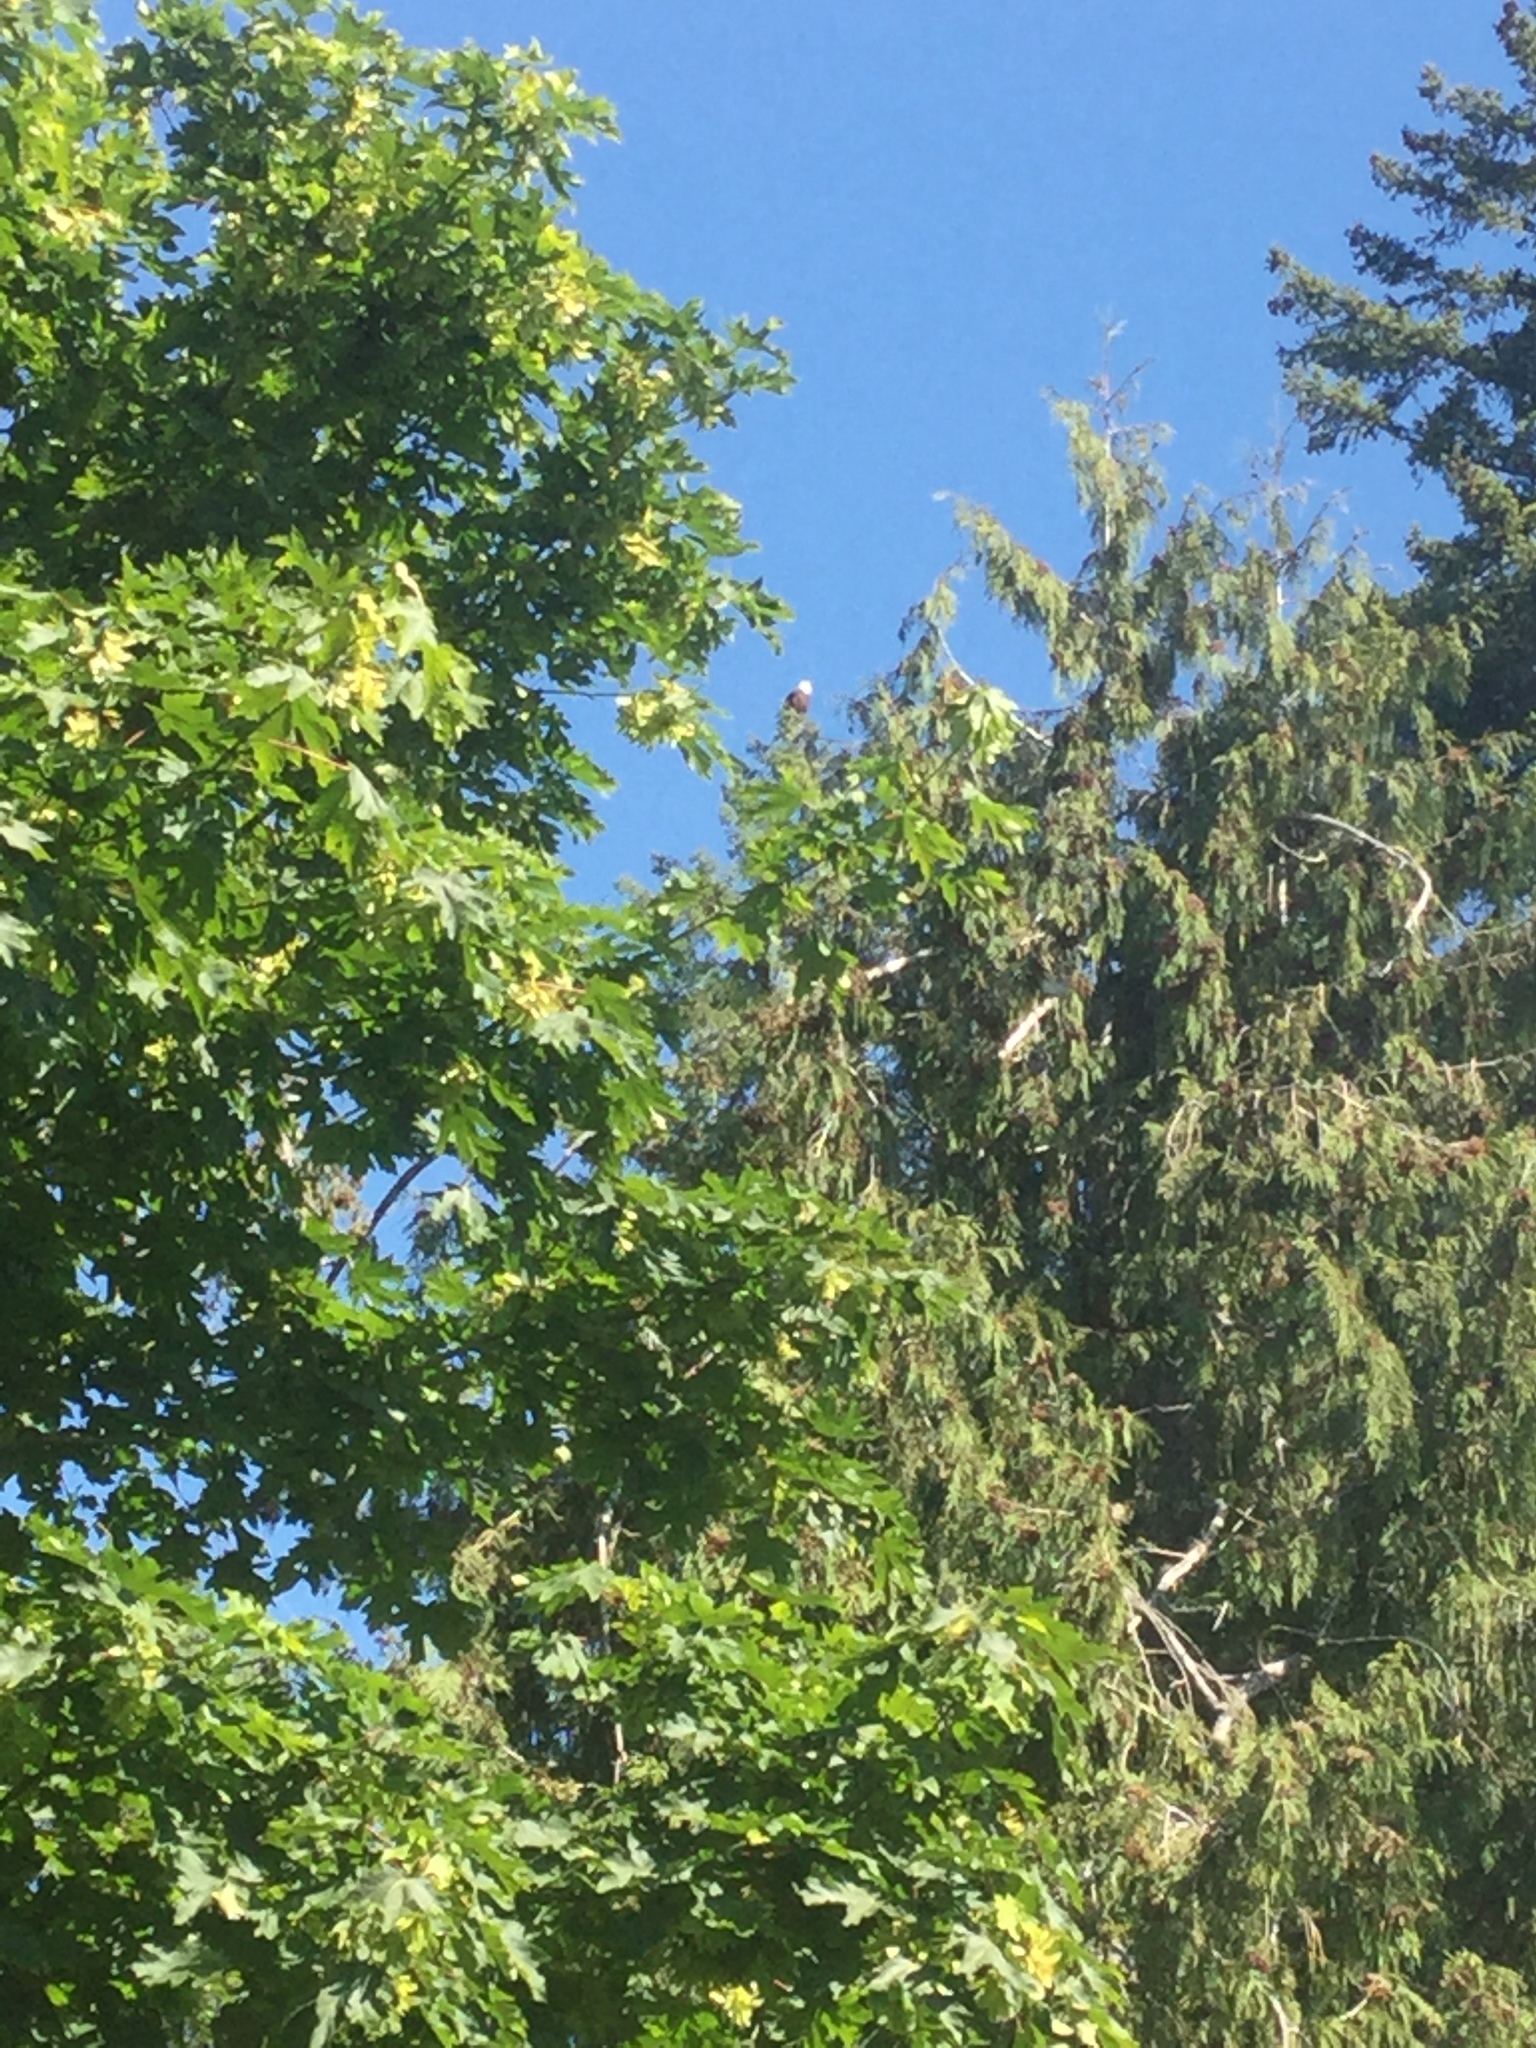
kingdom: Animalia
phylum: Chordata
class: Aves
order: Accipitriformes
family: Accipitridae
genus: Haliaeetus
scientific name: Haliaeetus leucocephalus
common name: Bald eagle
